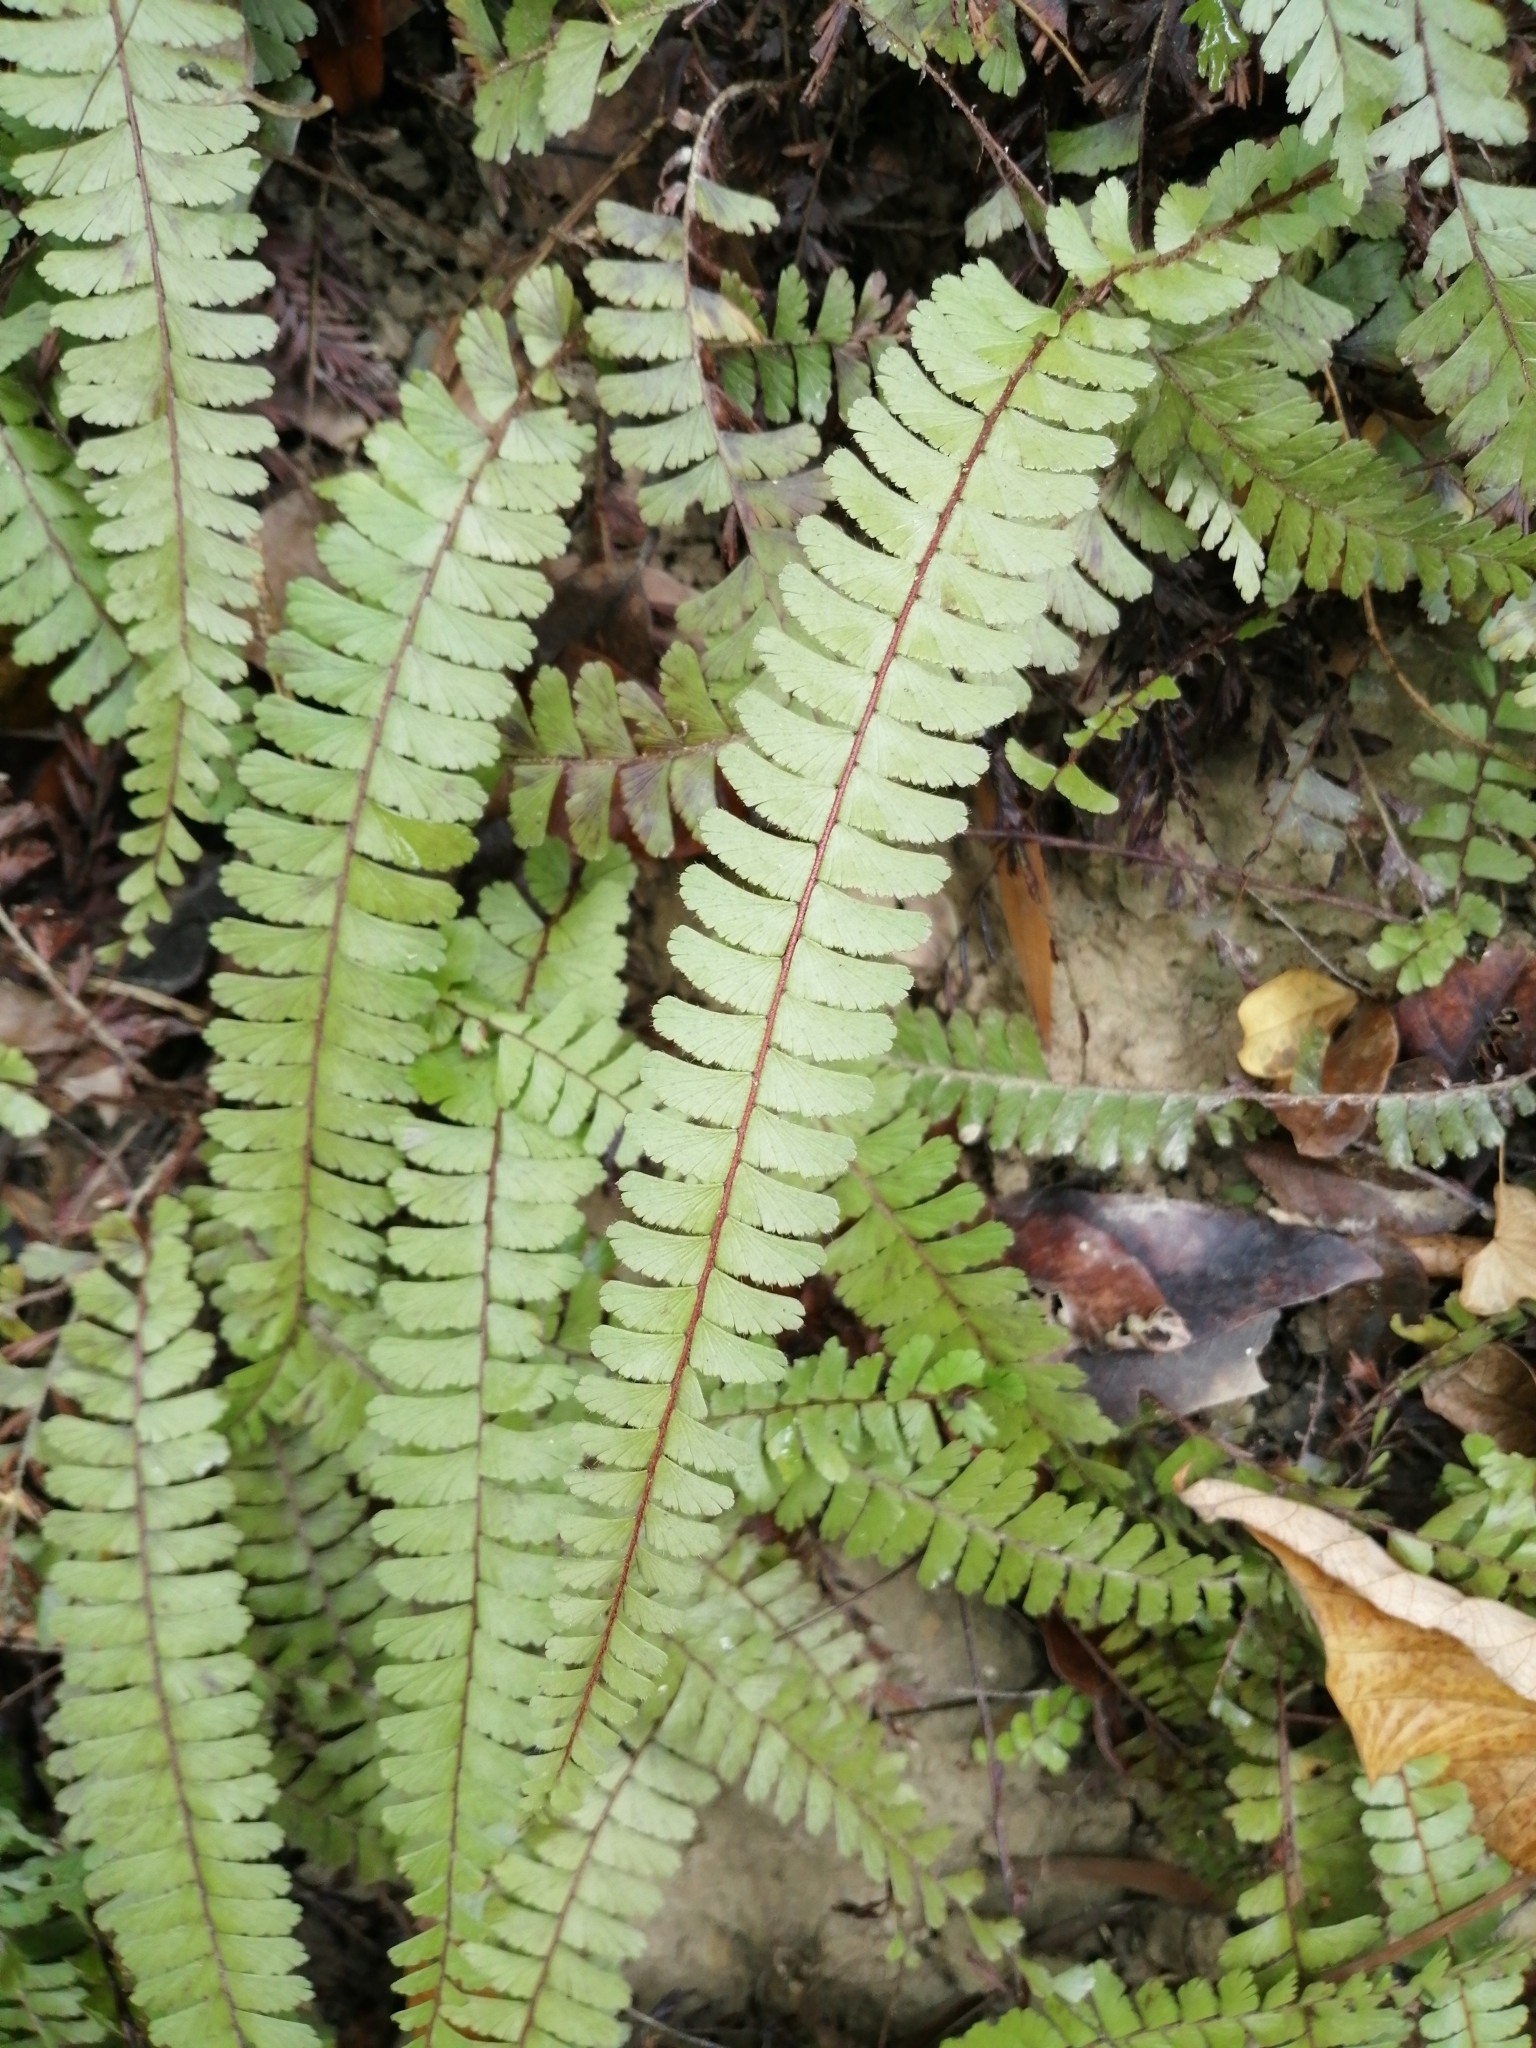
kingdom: Plantae
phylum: Tracheophyta
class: Polypodiopsida
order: Polypodiales
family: Pteridaceae
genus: Adiantum
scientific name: Adiantum caudatum
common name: Tailed maidenhair
